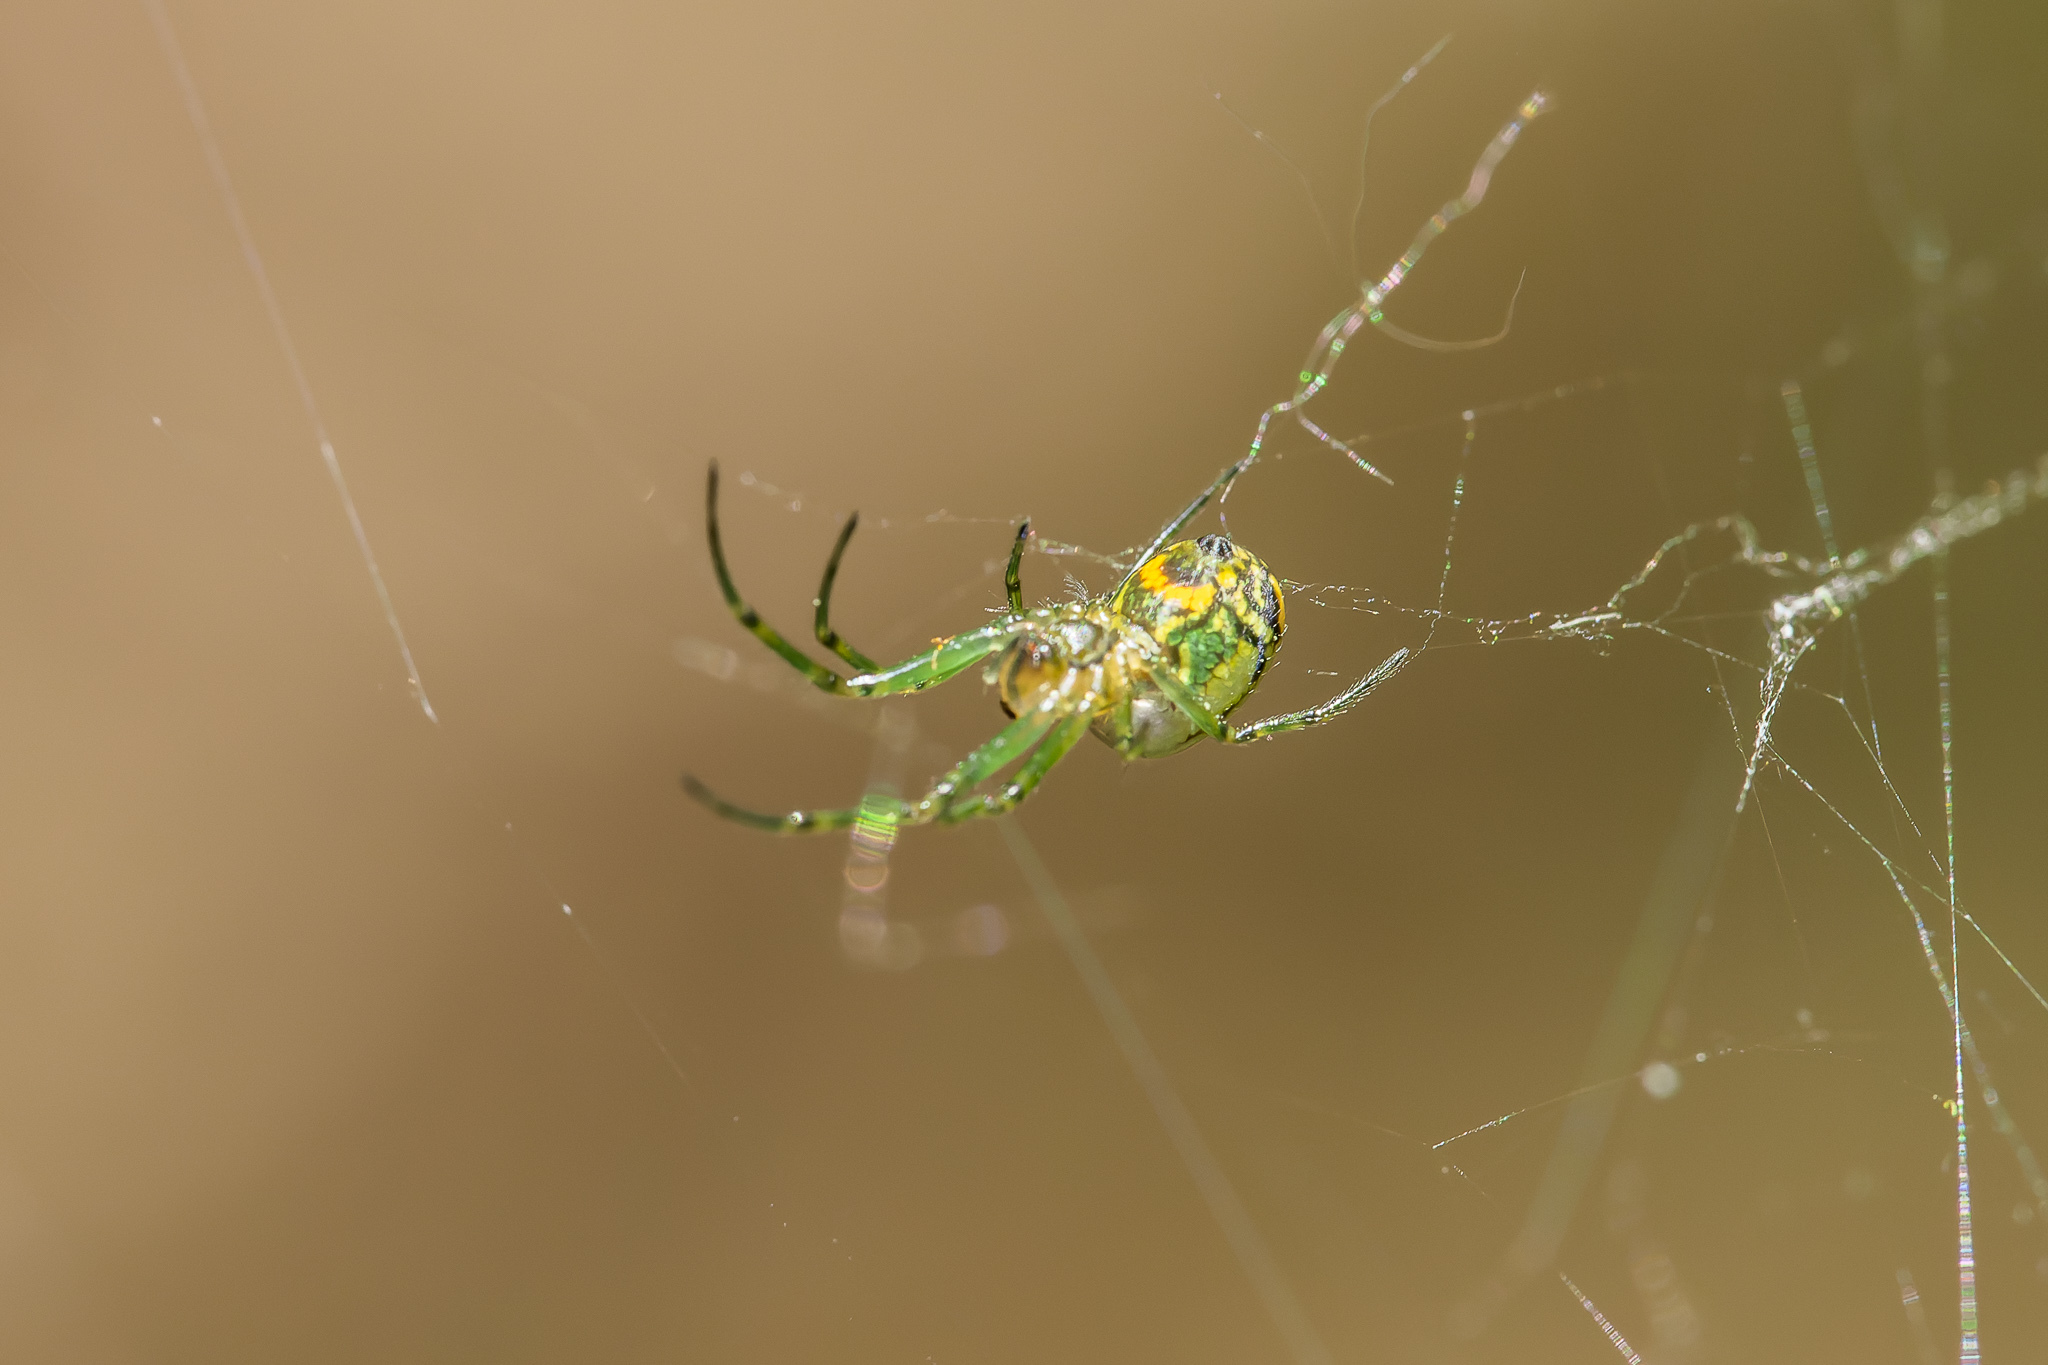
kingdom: Animalia
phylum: Arthropoda
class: Arachnida
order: Araneae
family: Tetragnathidae
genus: Leucauge
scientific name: Leucauge venusta
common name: Longjawed orb weavers
